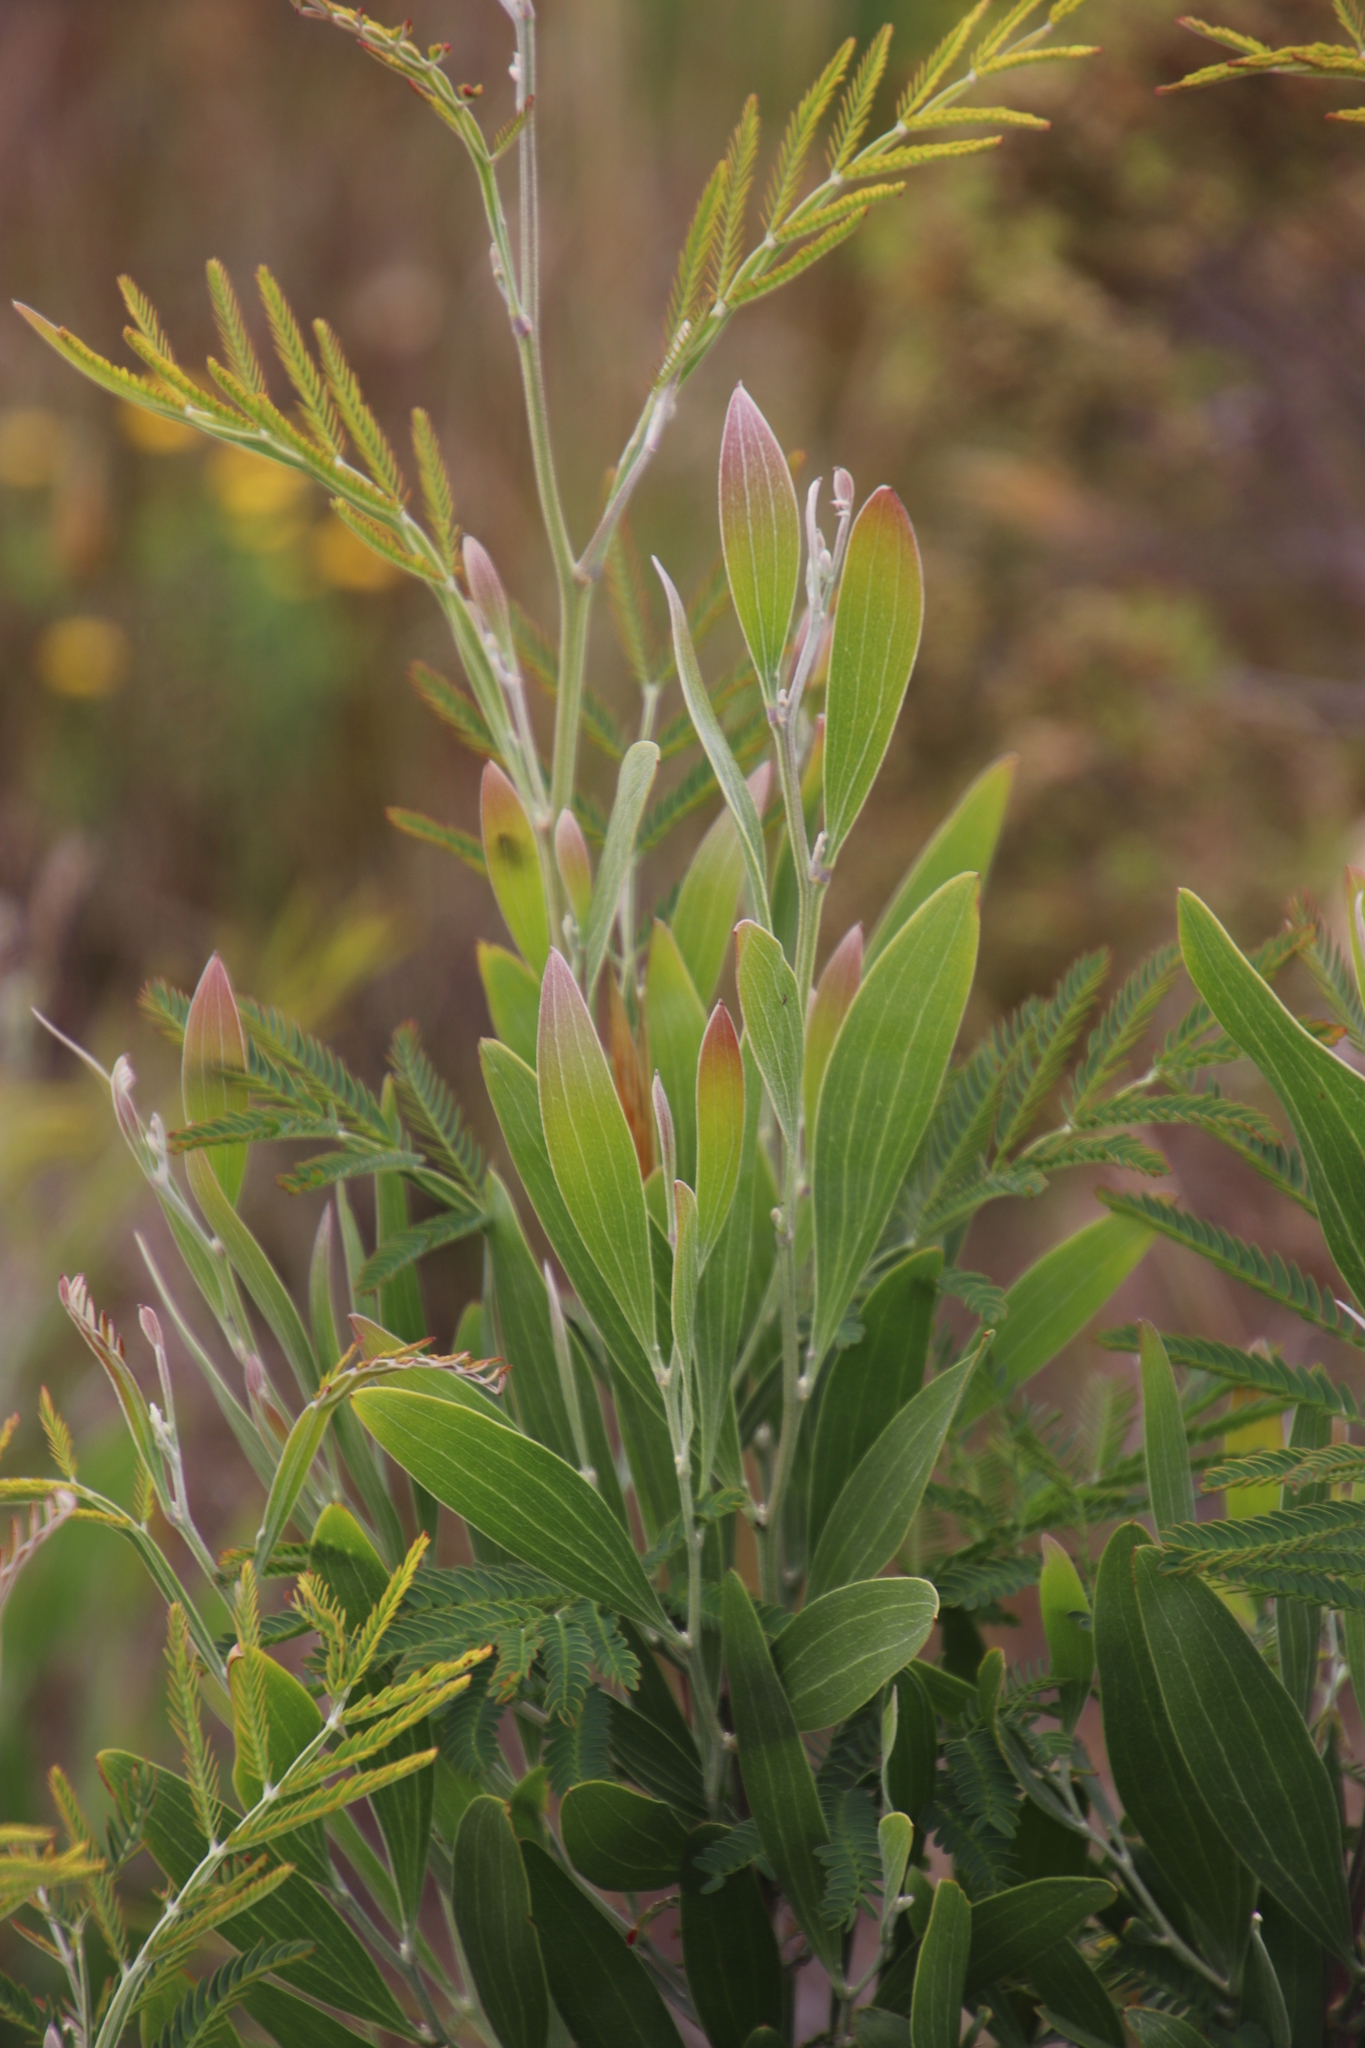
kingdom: Plantae
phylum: Tracheophyta
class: Magnoliopsida
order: Fabales
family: Fabaceae
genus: Acacia
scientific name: Acacia melanoxylon
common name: Blackwood
